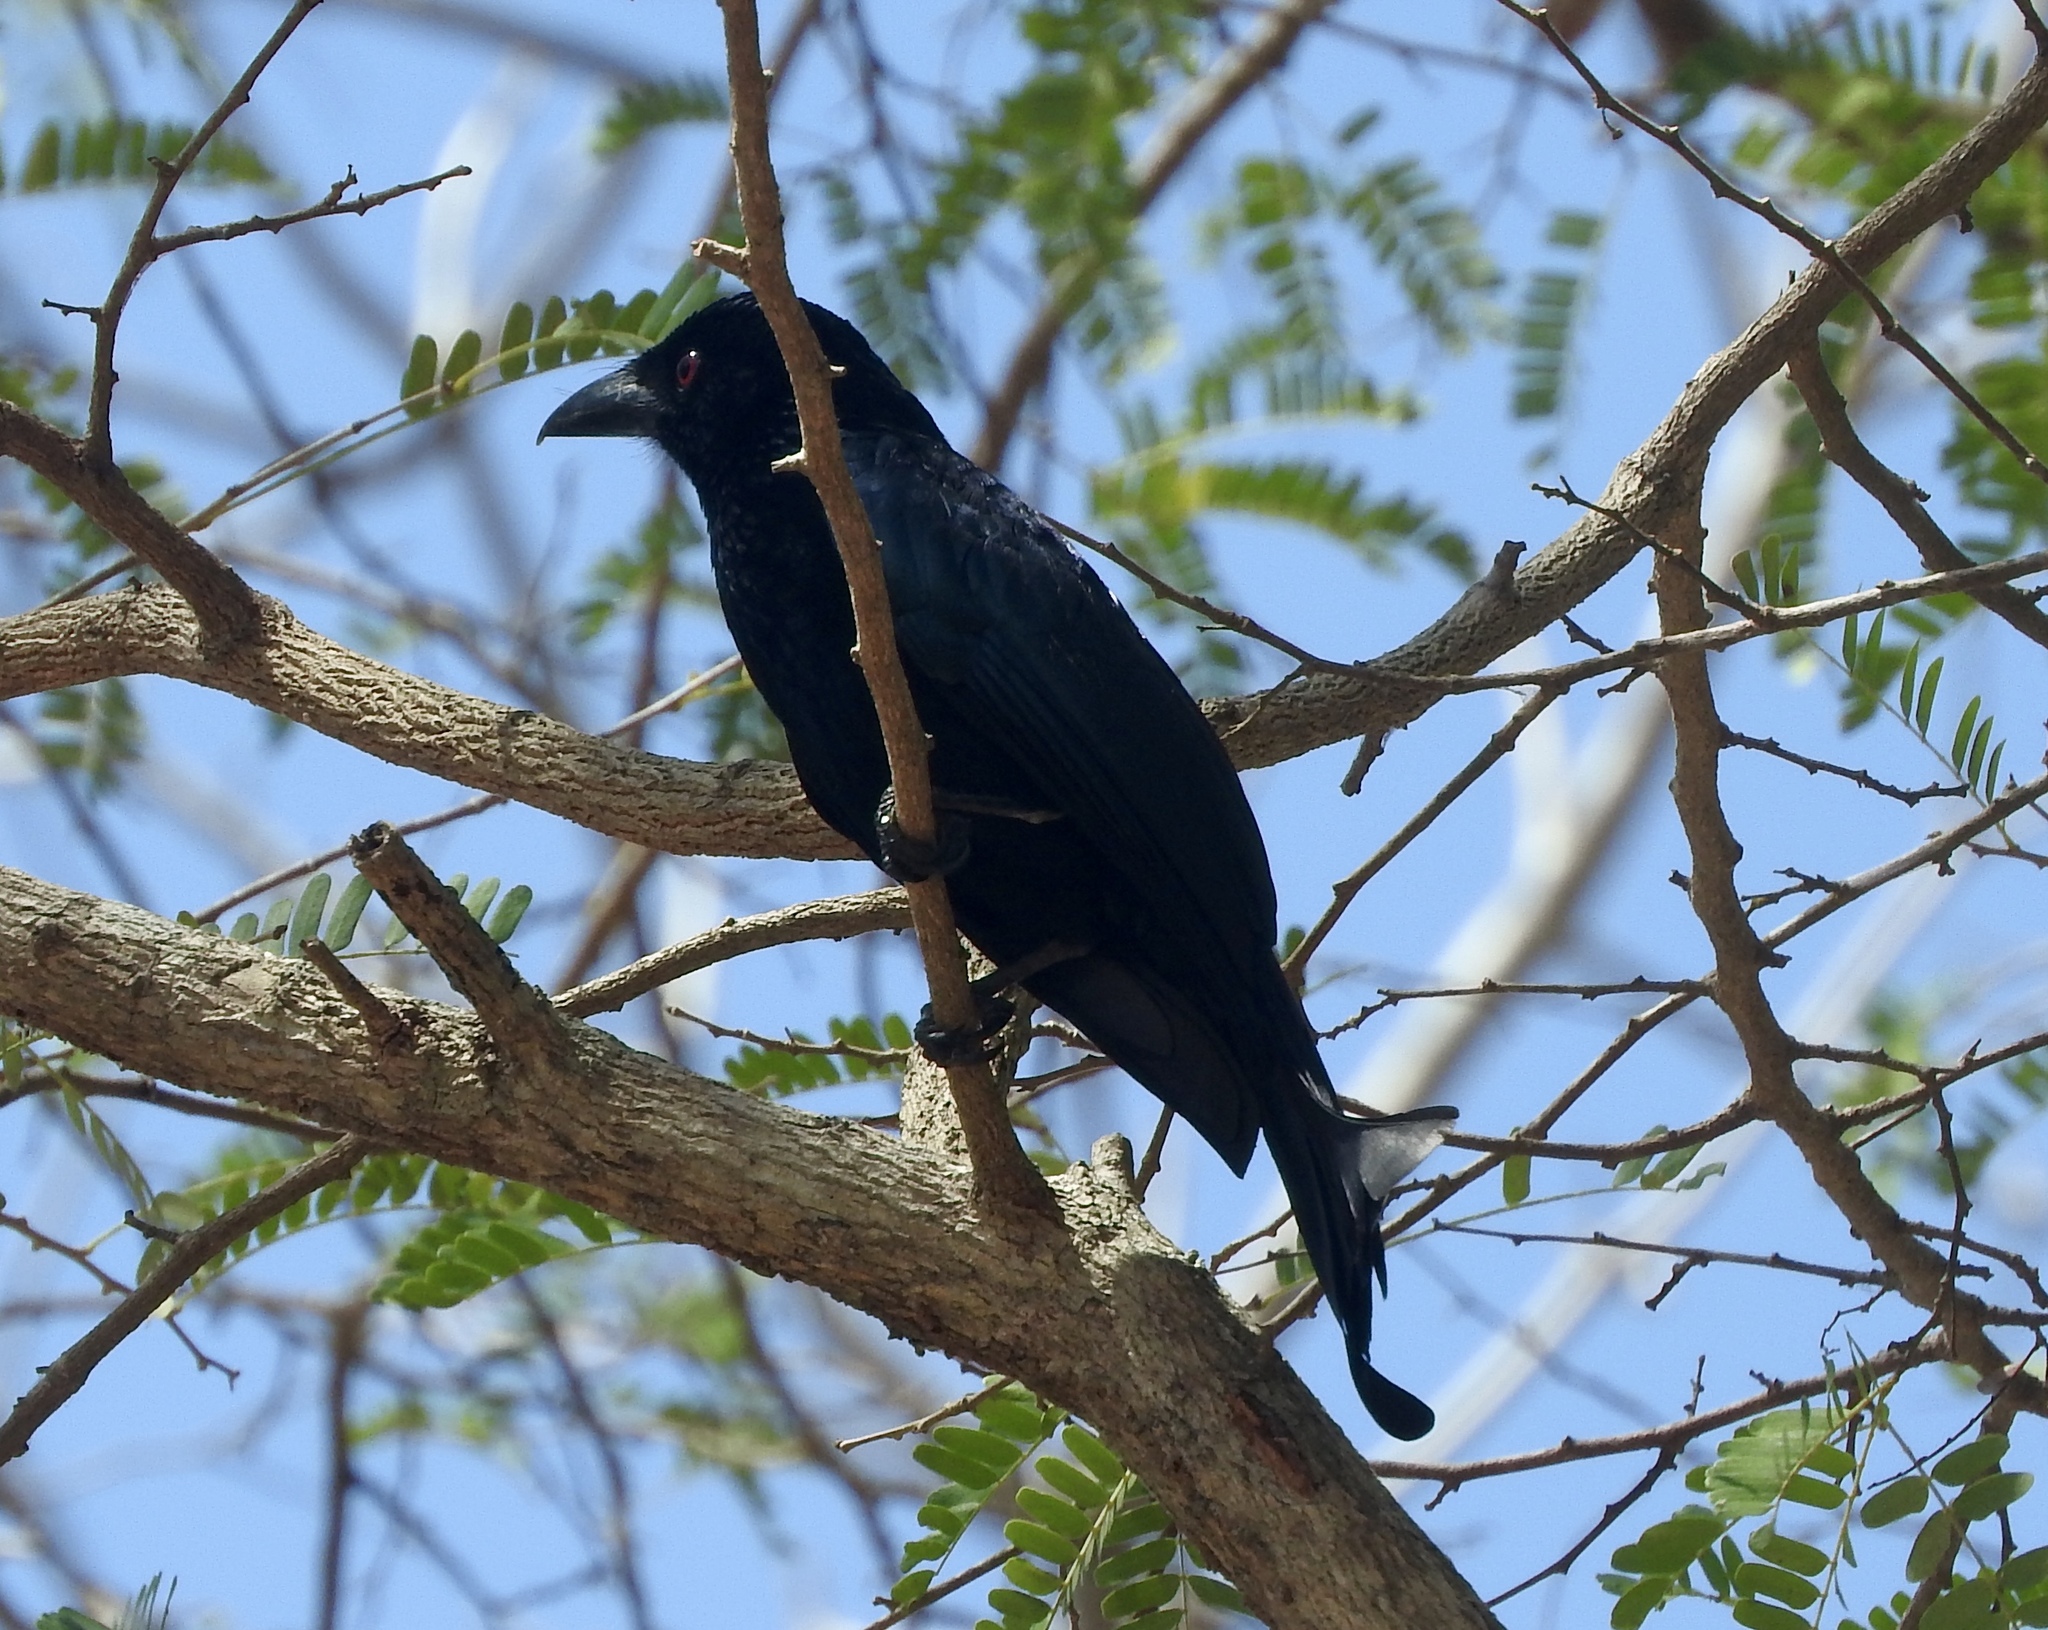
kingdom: Animalia
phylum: Chordata
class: Aves
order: Passeriformes
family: Dicruridae
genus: Dicrurus
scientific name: Dicrurus densus
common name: Wallacean drongo
